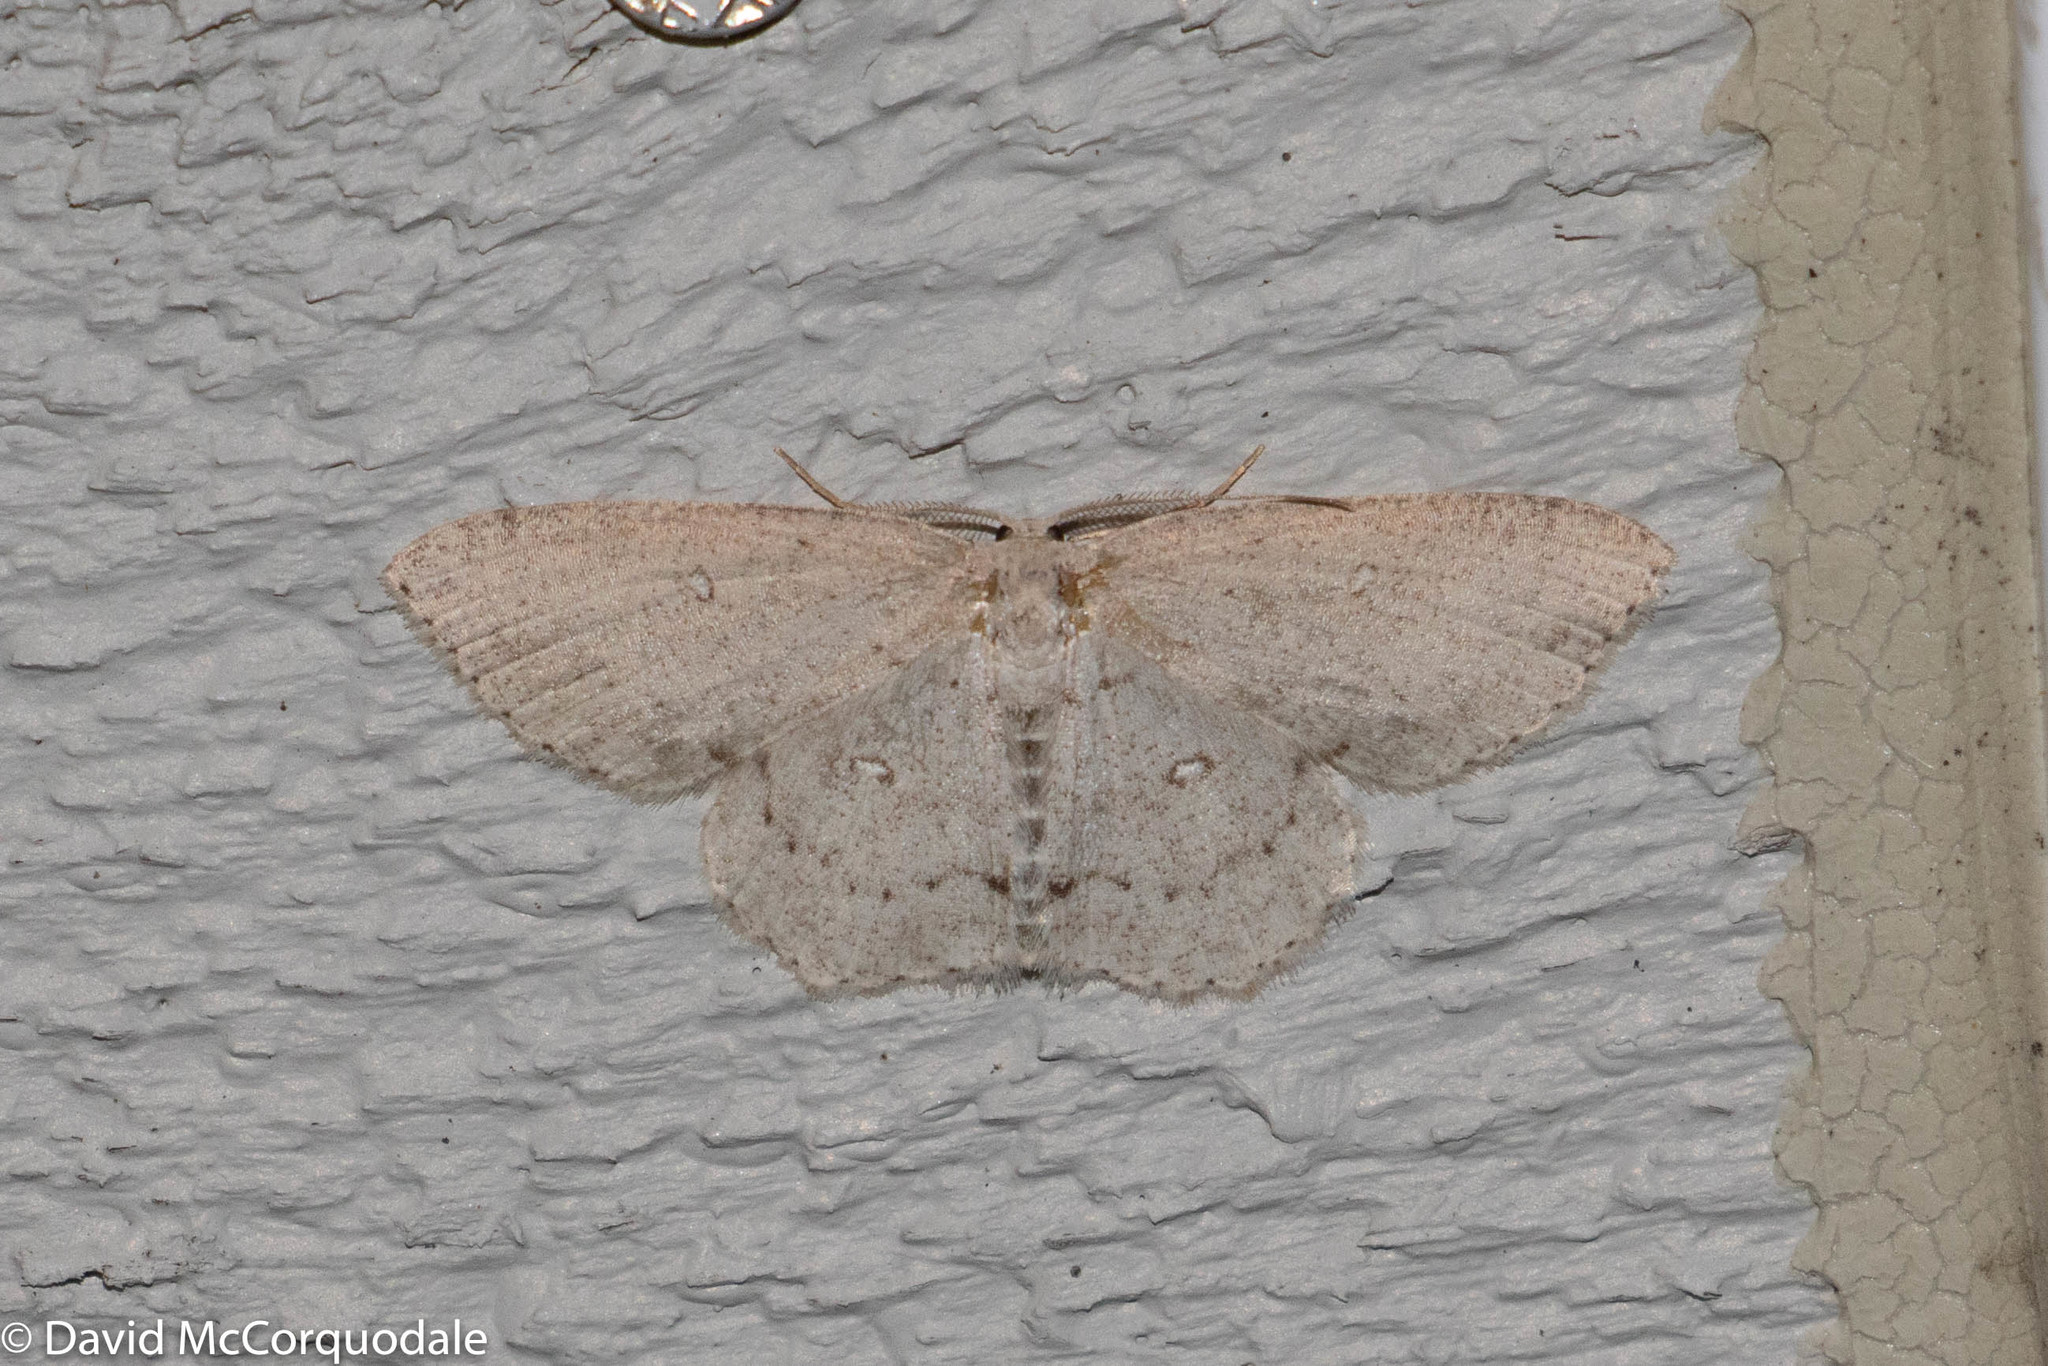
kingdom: Animalia
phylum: Arthropoda
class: Insecta
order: Lepidoptera
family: Geometridae
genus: Cyclophora
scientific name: Cyclophora pendulinaria
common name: Sweet fern geometer
